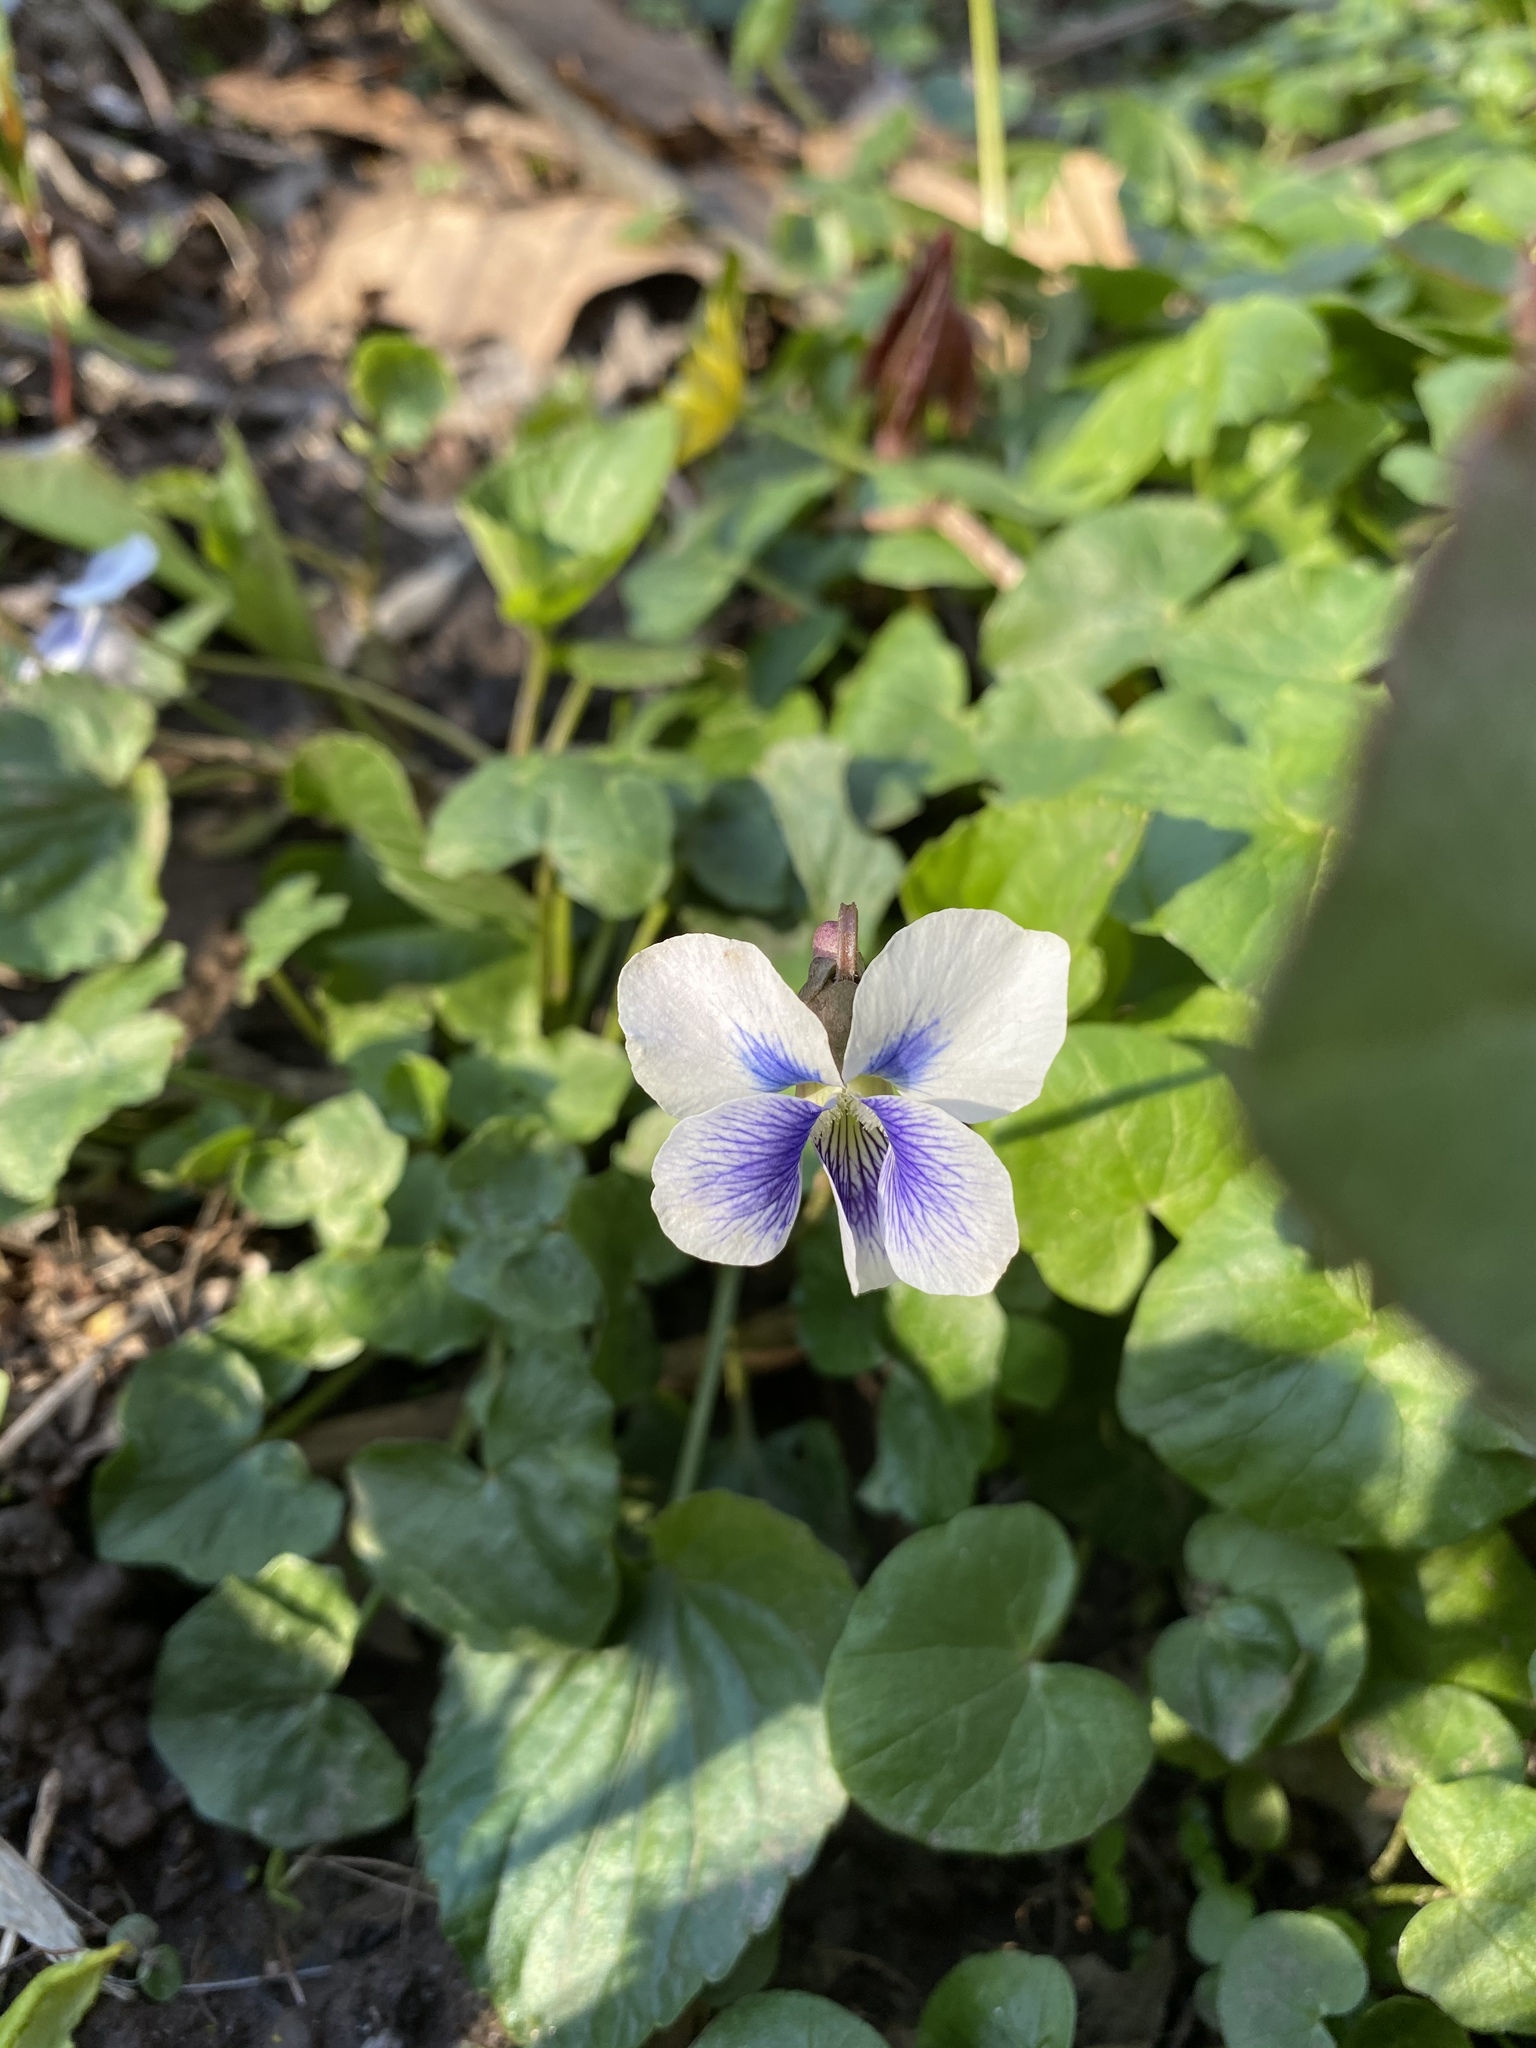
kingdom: Plantae
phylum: Tracheophyta
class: Magnoliopsida
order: Malpighiales
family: Violaceae
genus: Viola
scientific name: Viola sororia
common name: Dooryard violet
